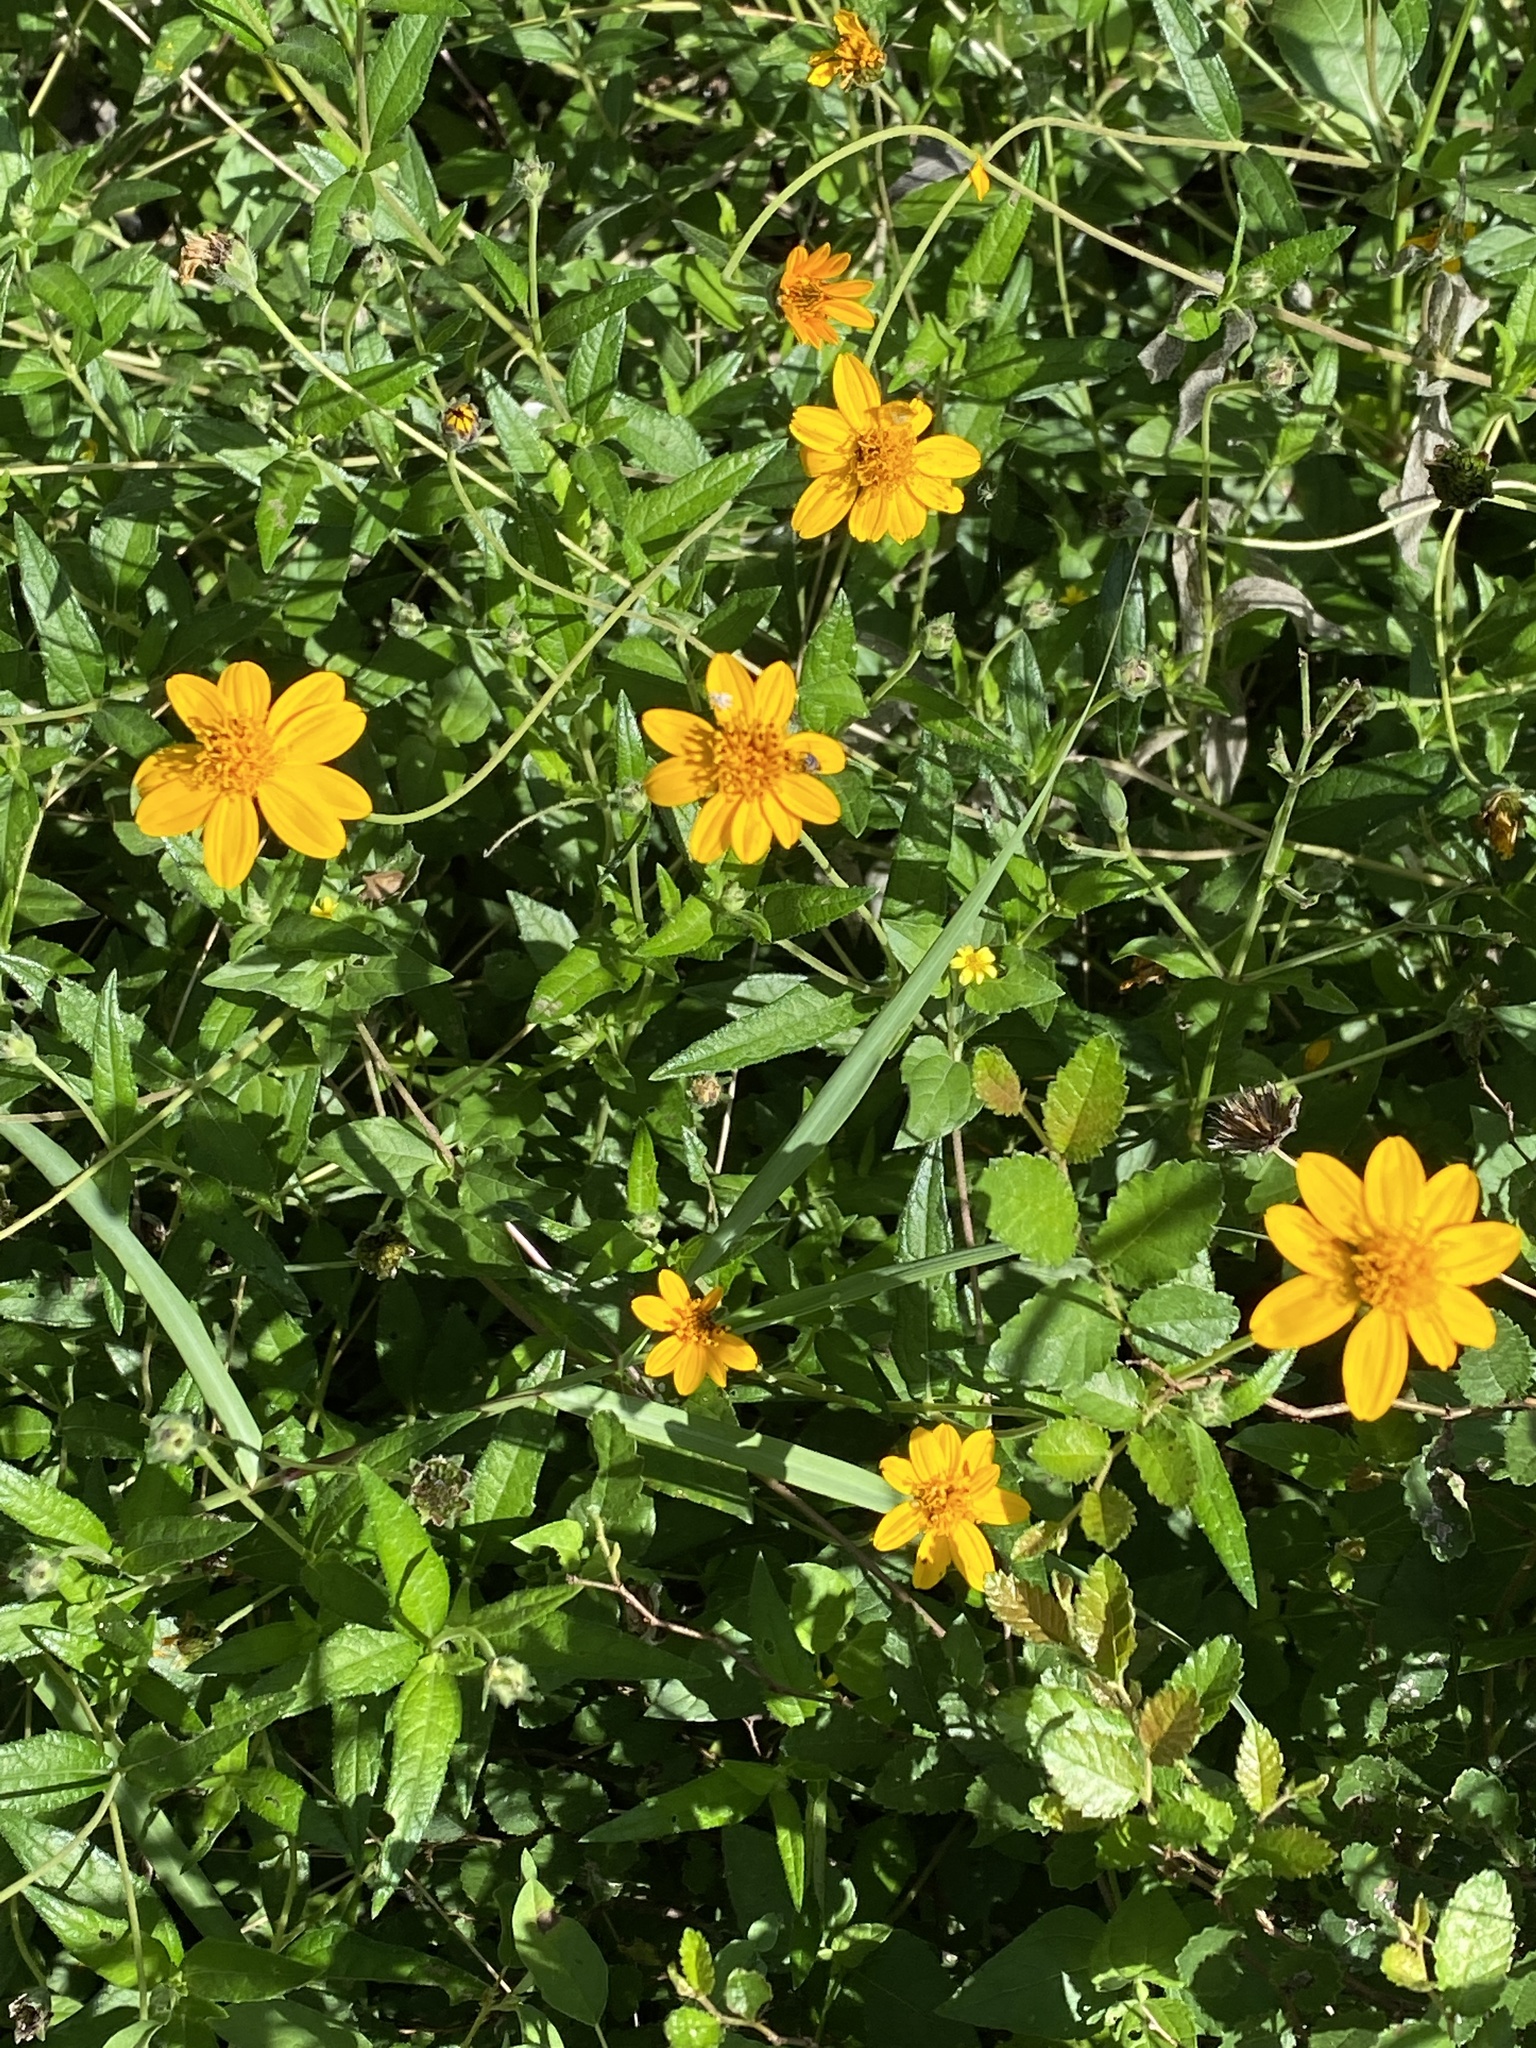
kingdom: Plantae
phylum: Tracheophyta
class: Magnoliopsida
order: Asterales
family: Asteraceae
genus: Wedelia
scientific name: Wedelia acapulcensis
